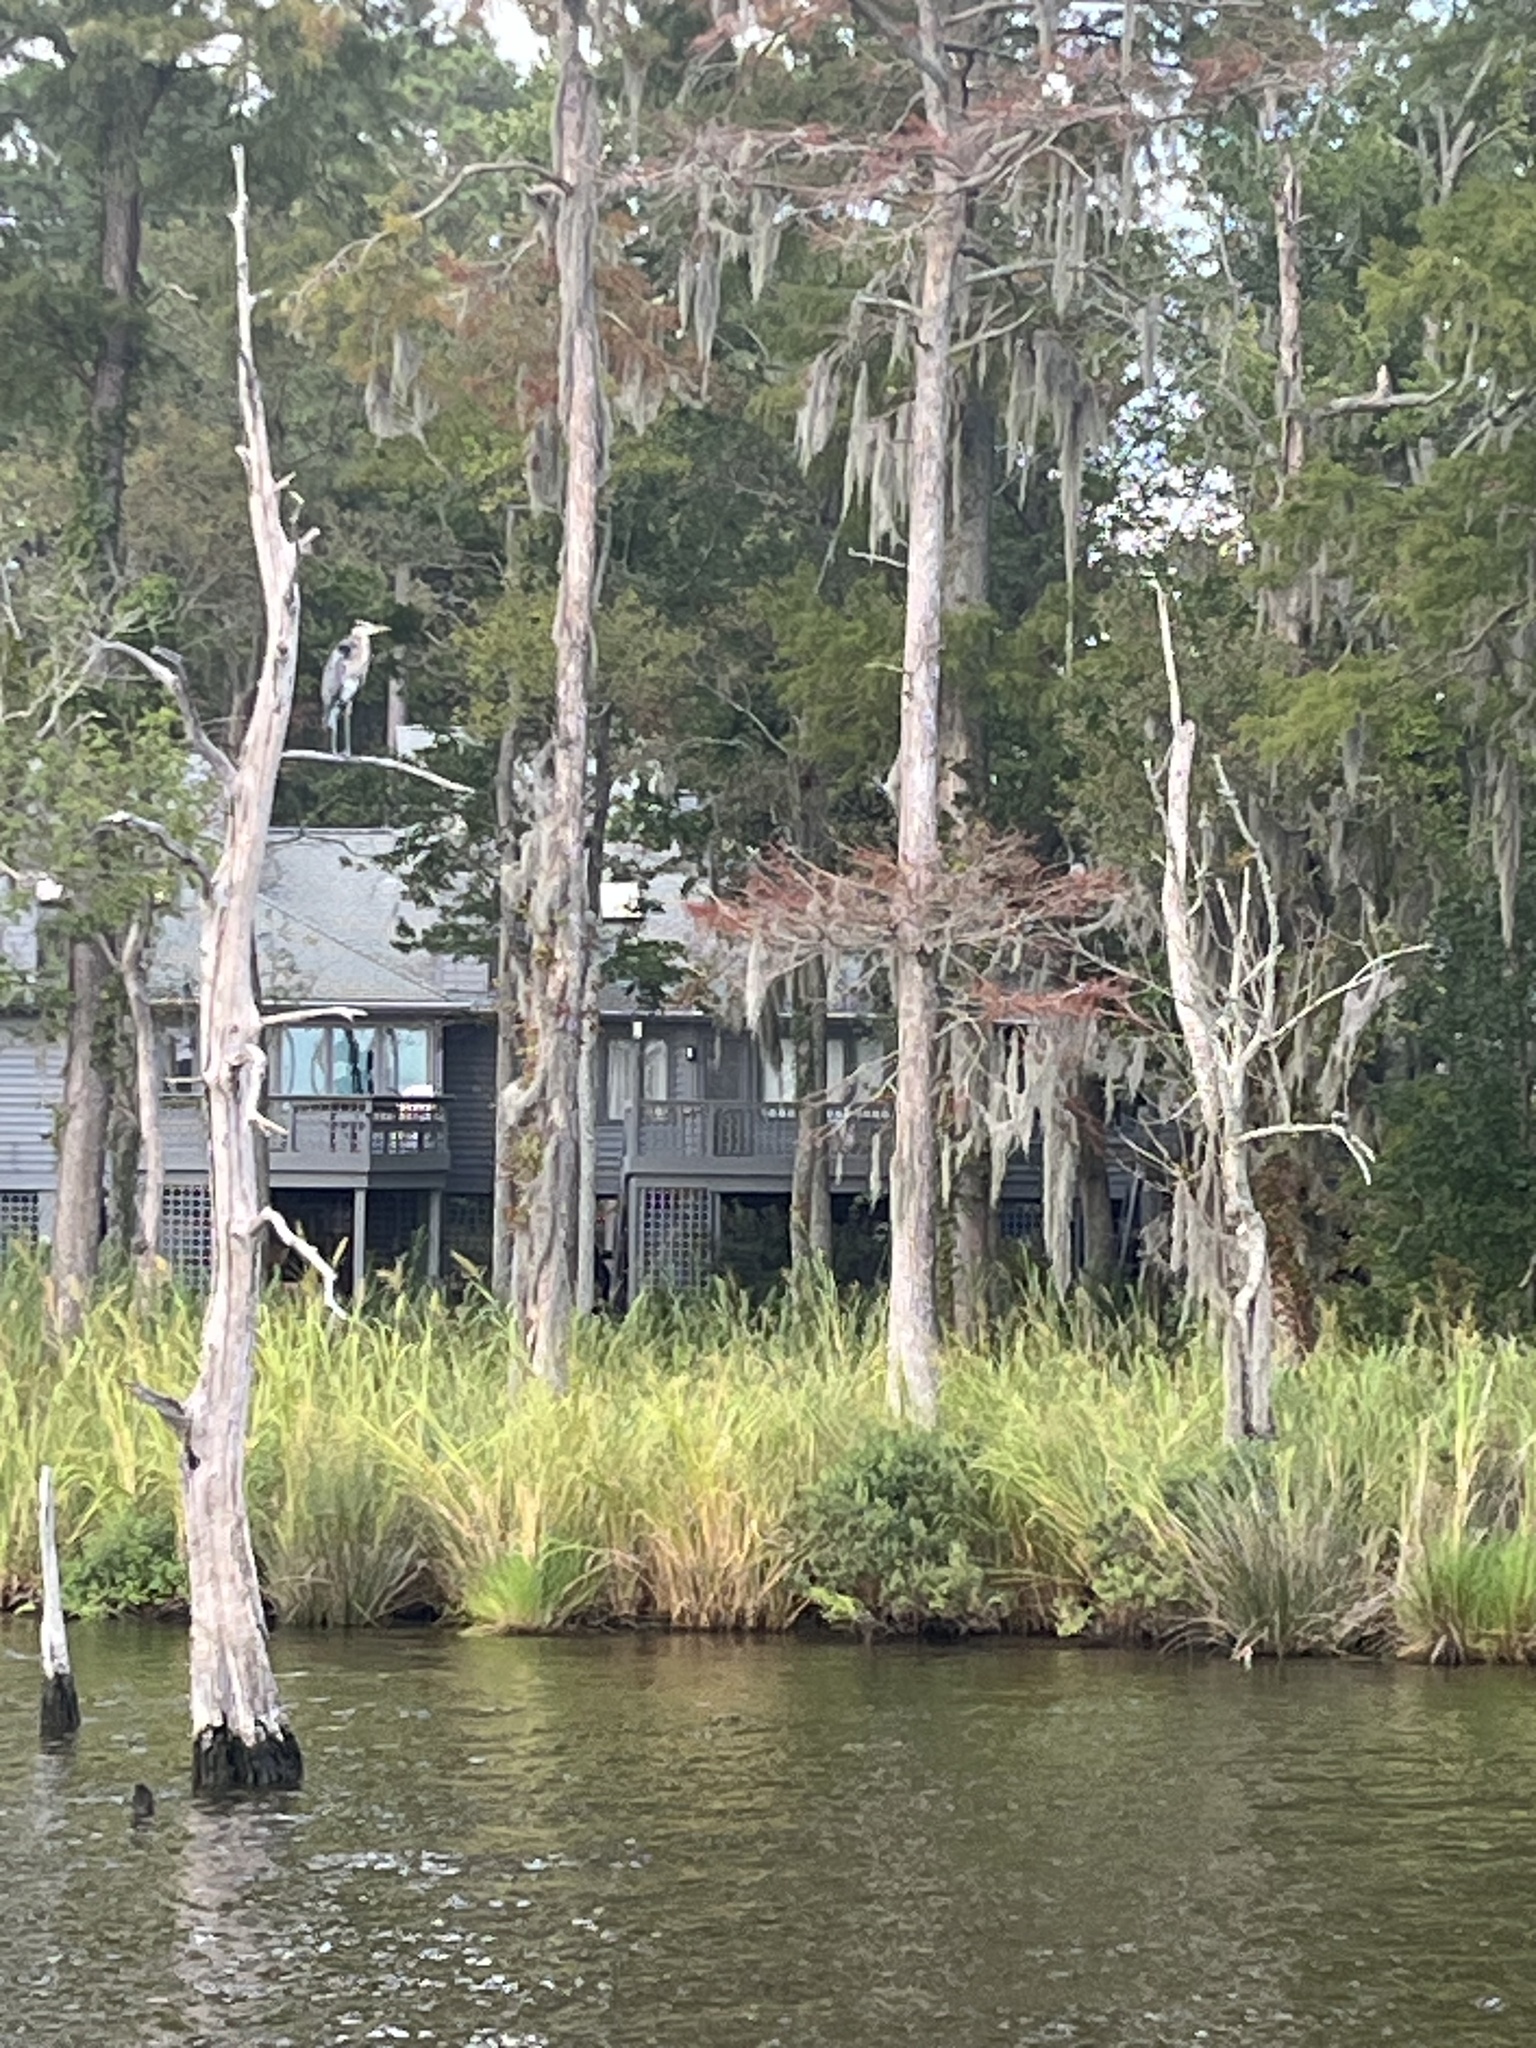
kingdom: Animalia
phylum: Chordata
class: Aves
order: Pelecaniformes
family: Ardeidae
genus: Ardea
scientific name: Ardea herodias
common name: Great blue heron
